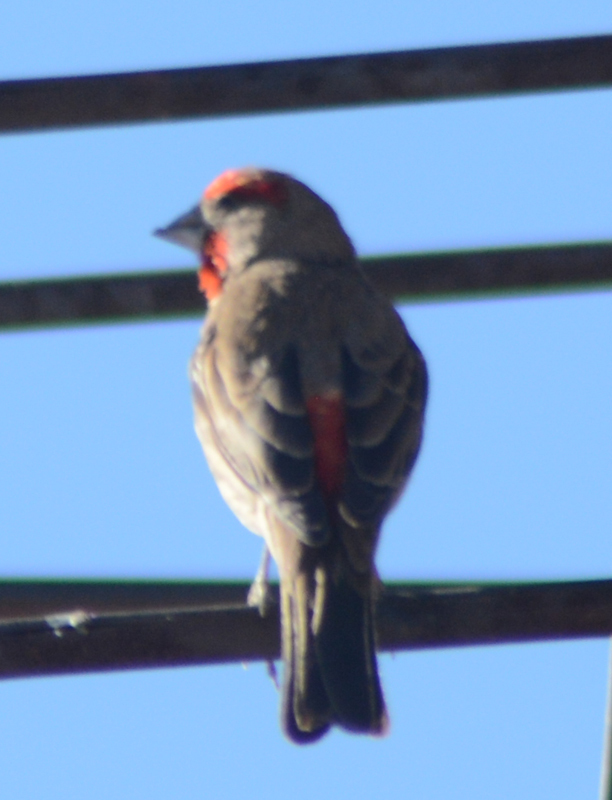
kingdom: Animalia
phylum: Chordata
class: Aves
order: Passeriformes
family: Fringillidae
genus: Haemorhous
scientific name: Haemorhous mexicanus
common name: House finch
